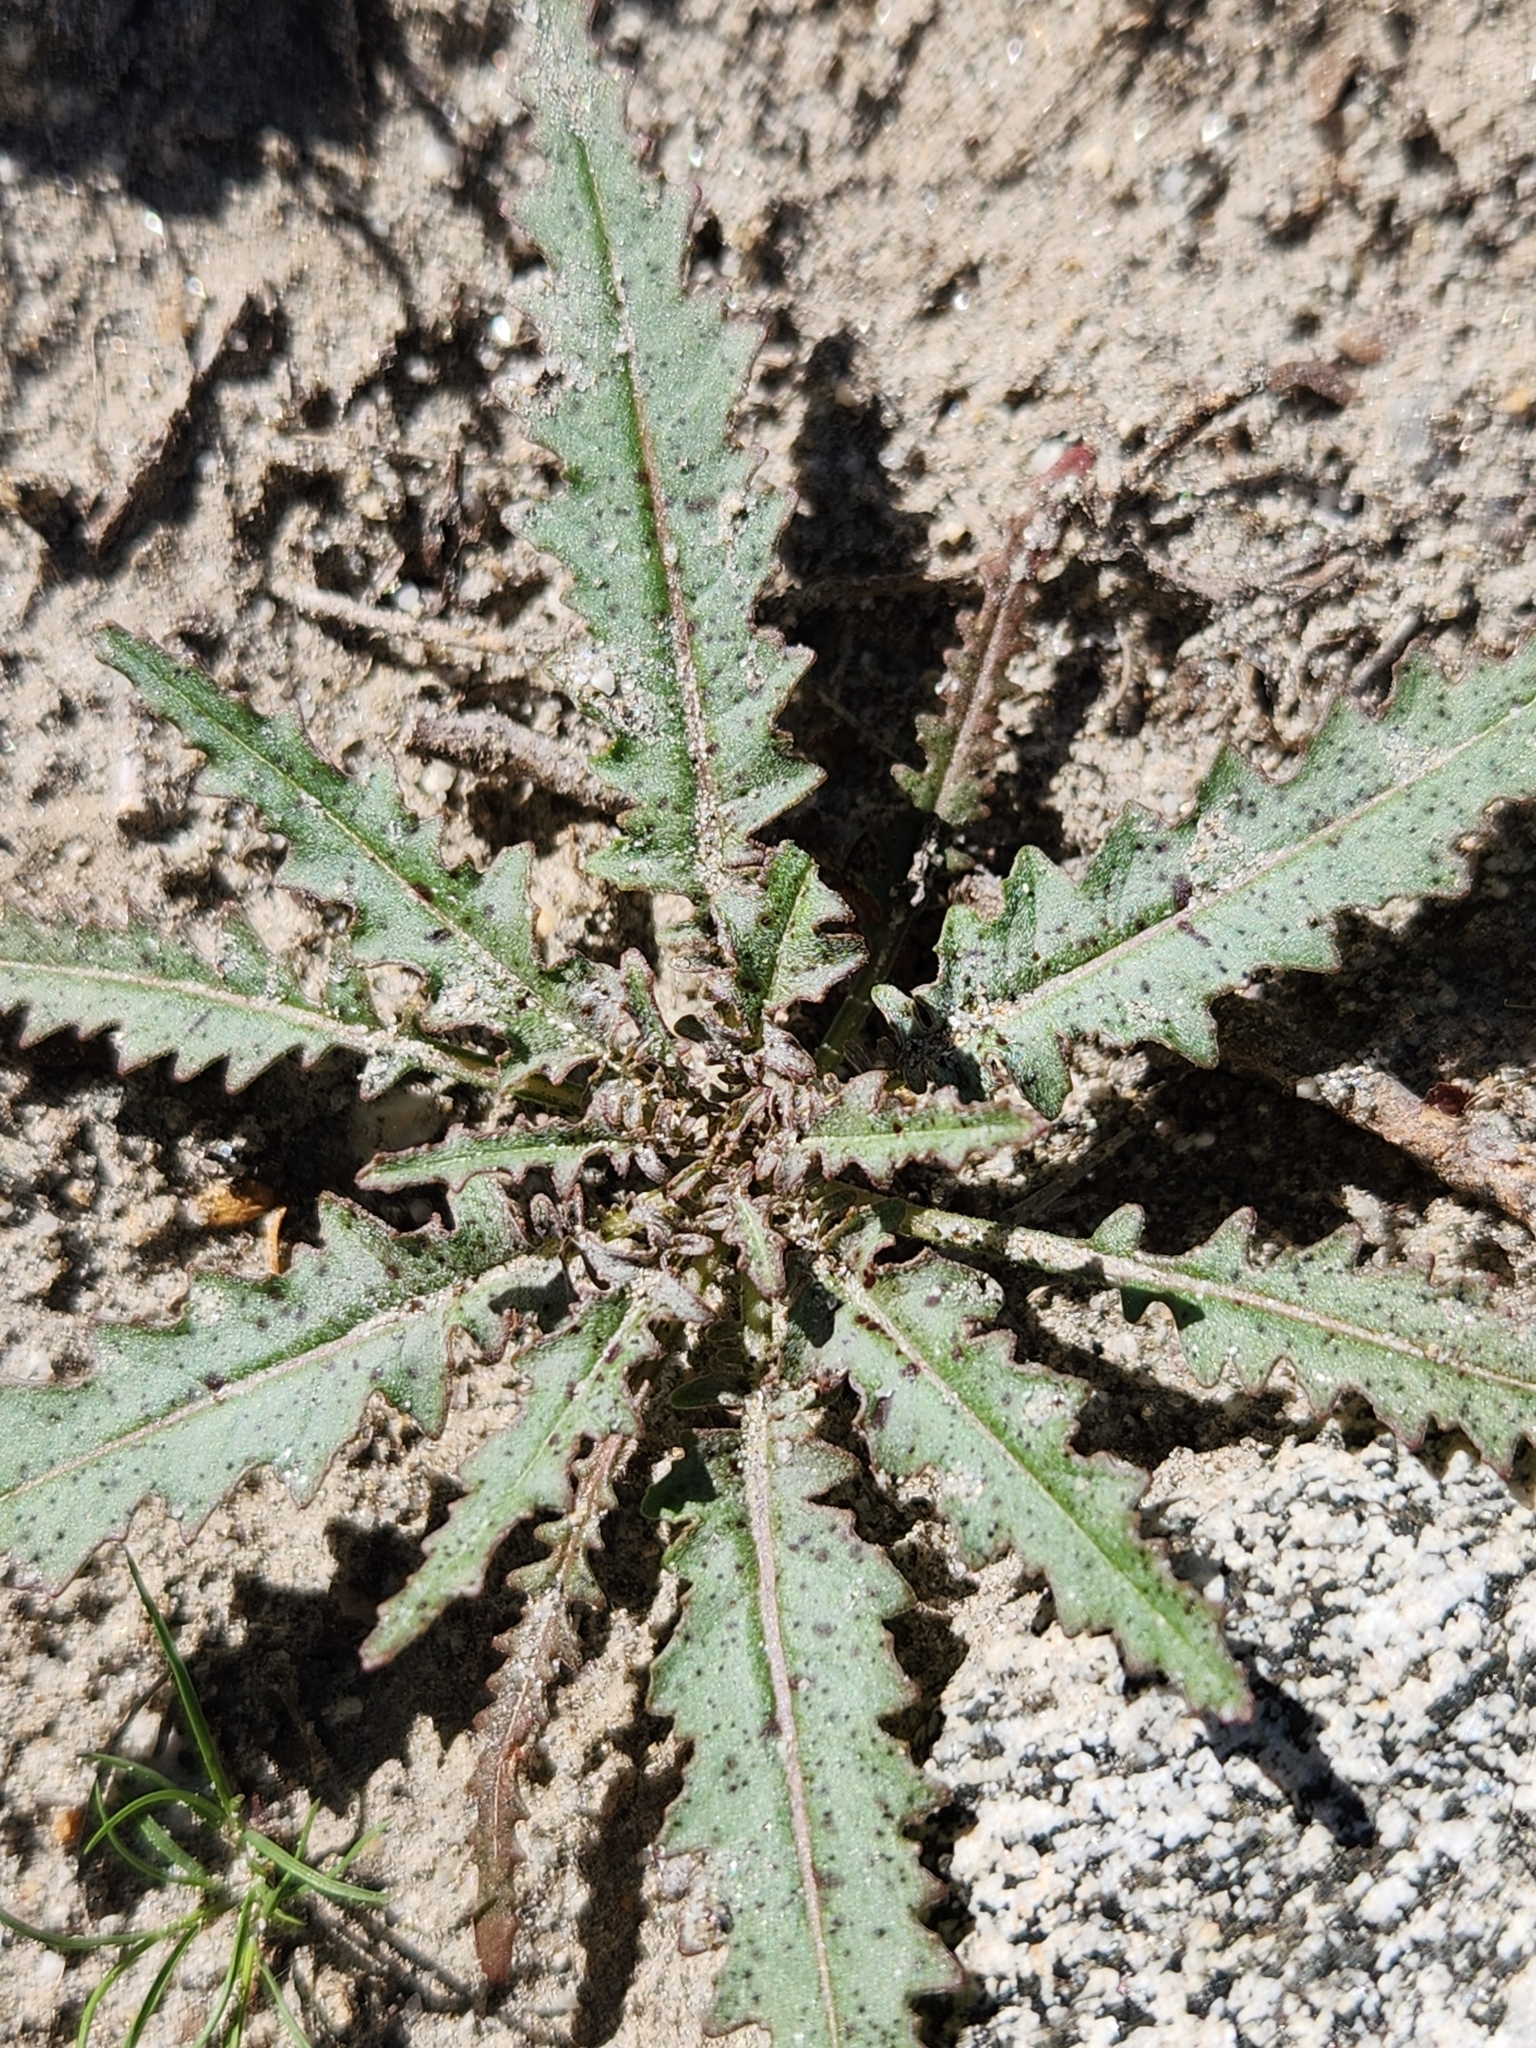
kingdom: Plantae
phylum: Tracheophyta
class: Magnoliopsida
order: Myrtales
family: Onagraceae
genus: Eulobus
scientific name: Eulobus californicus
